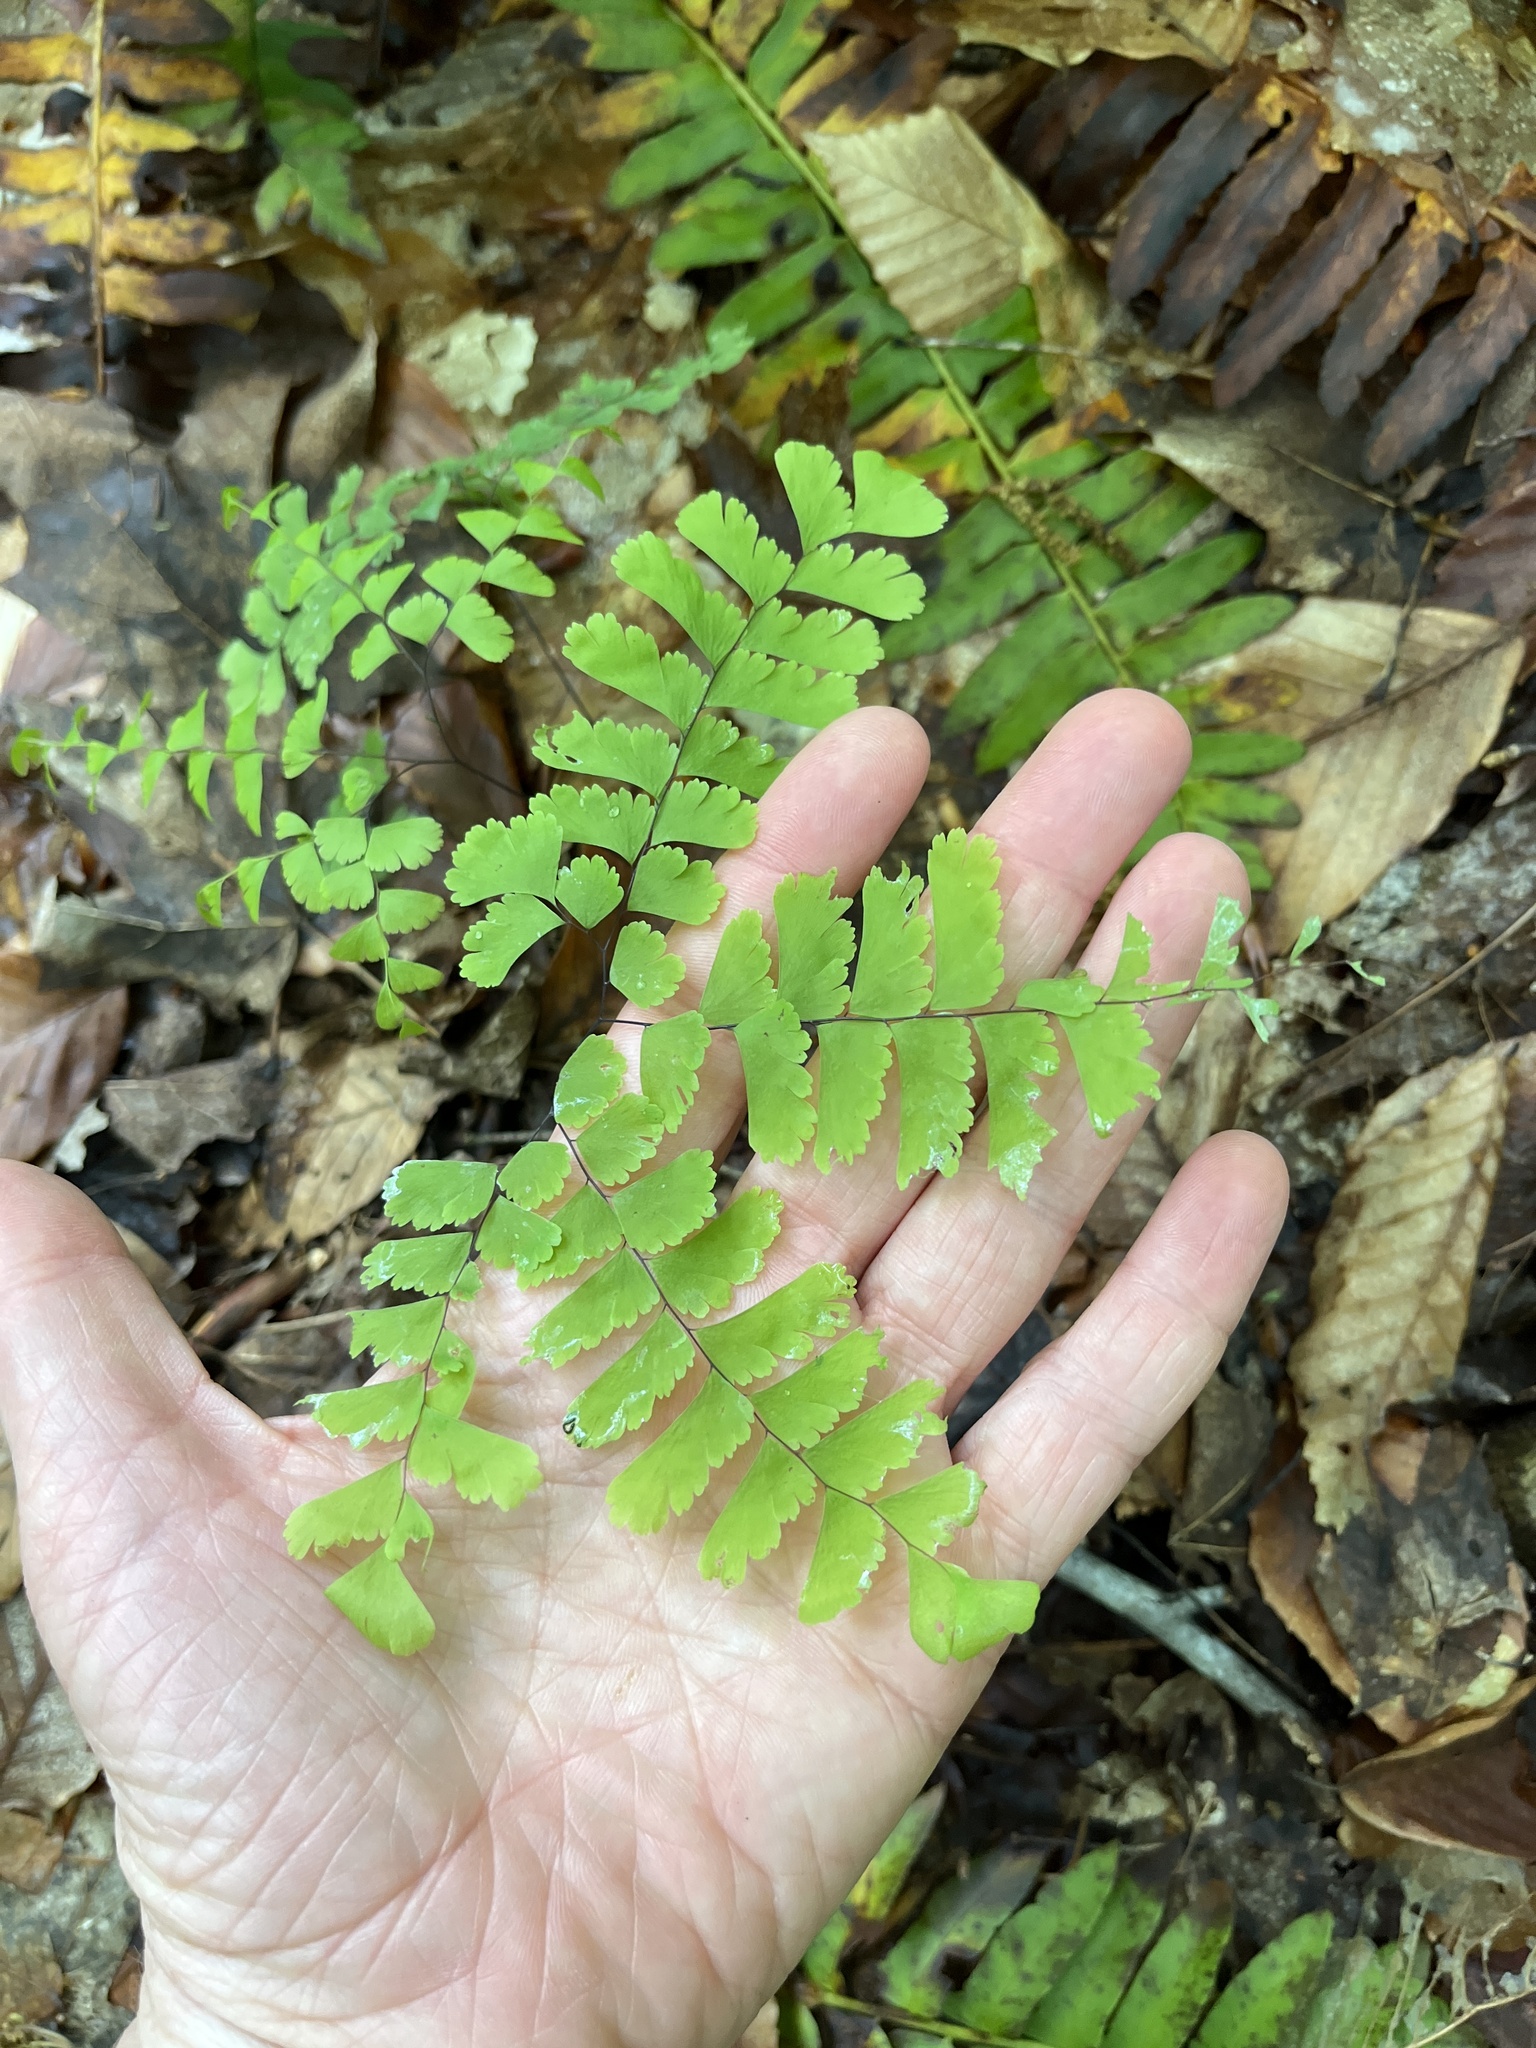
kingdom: Plantae
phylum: Tracheophyta
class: Polypodiopsida
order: Polypodiales
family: Pteridaceae
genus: Adiantum
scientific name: Adiantum pedatum
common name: Five-finger fern
